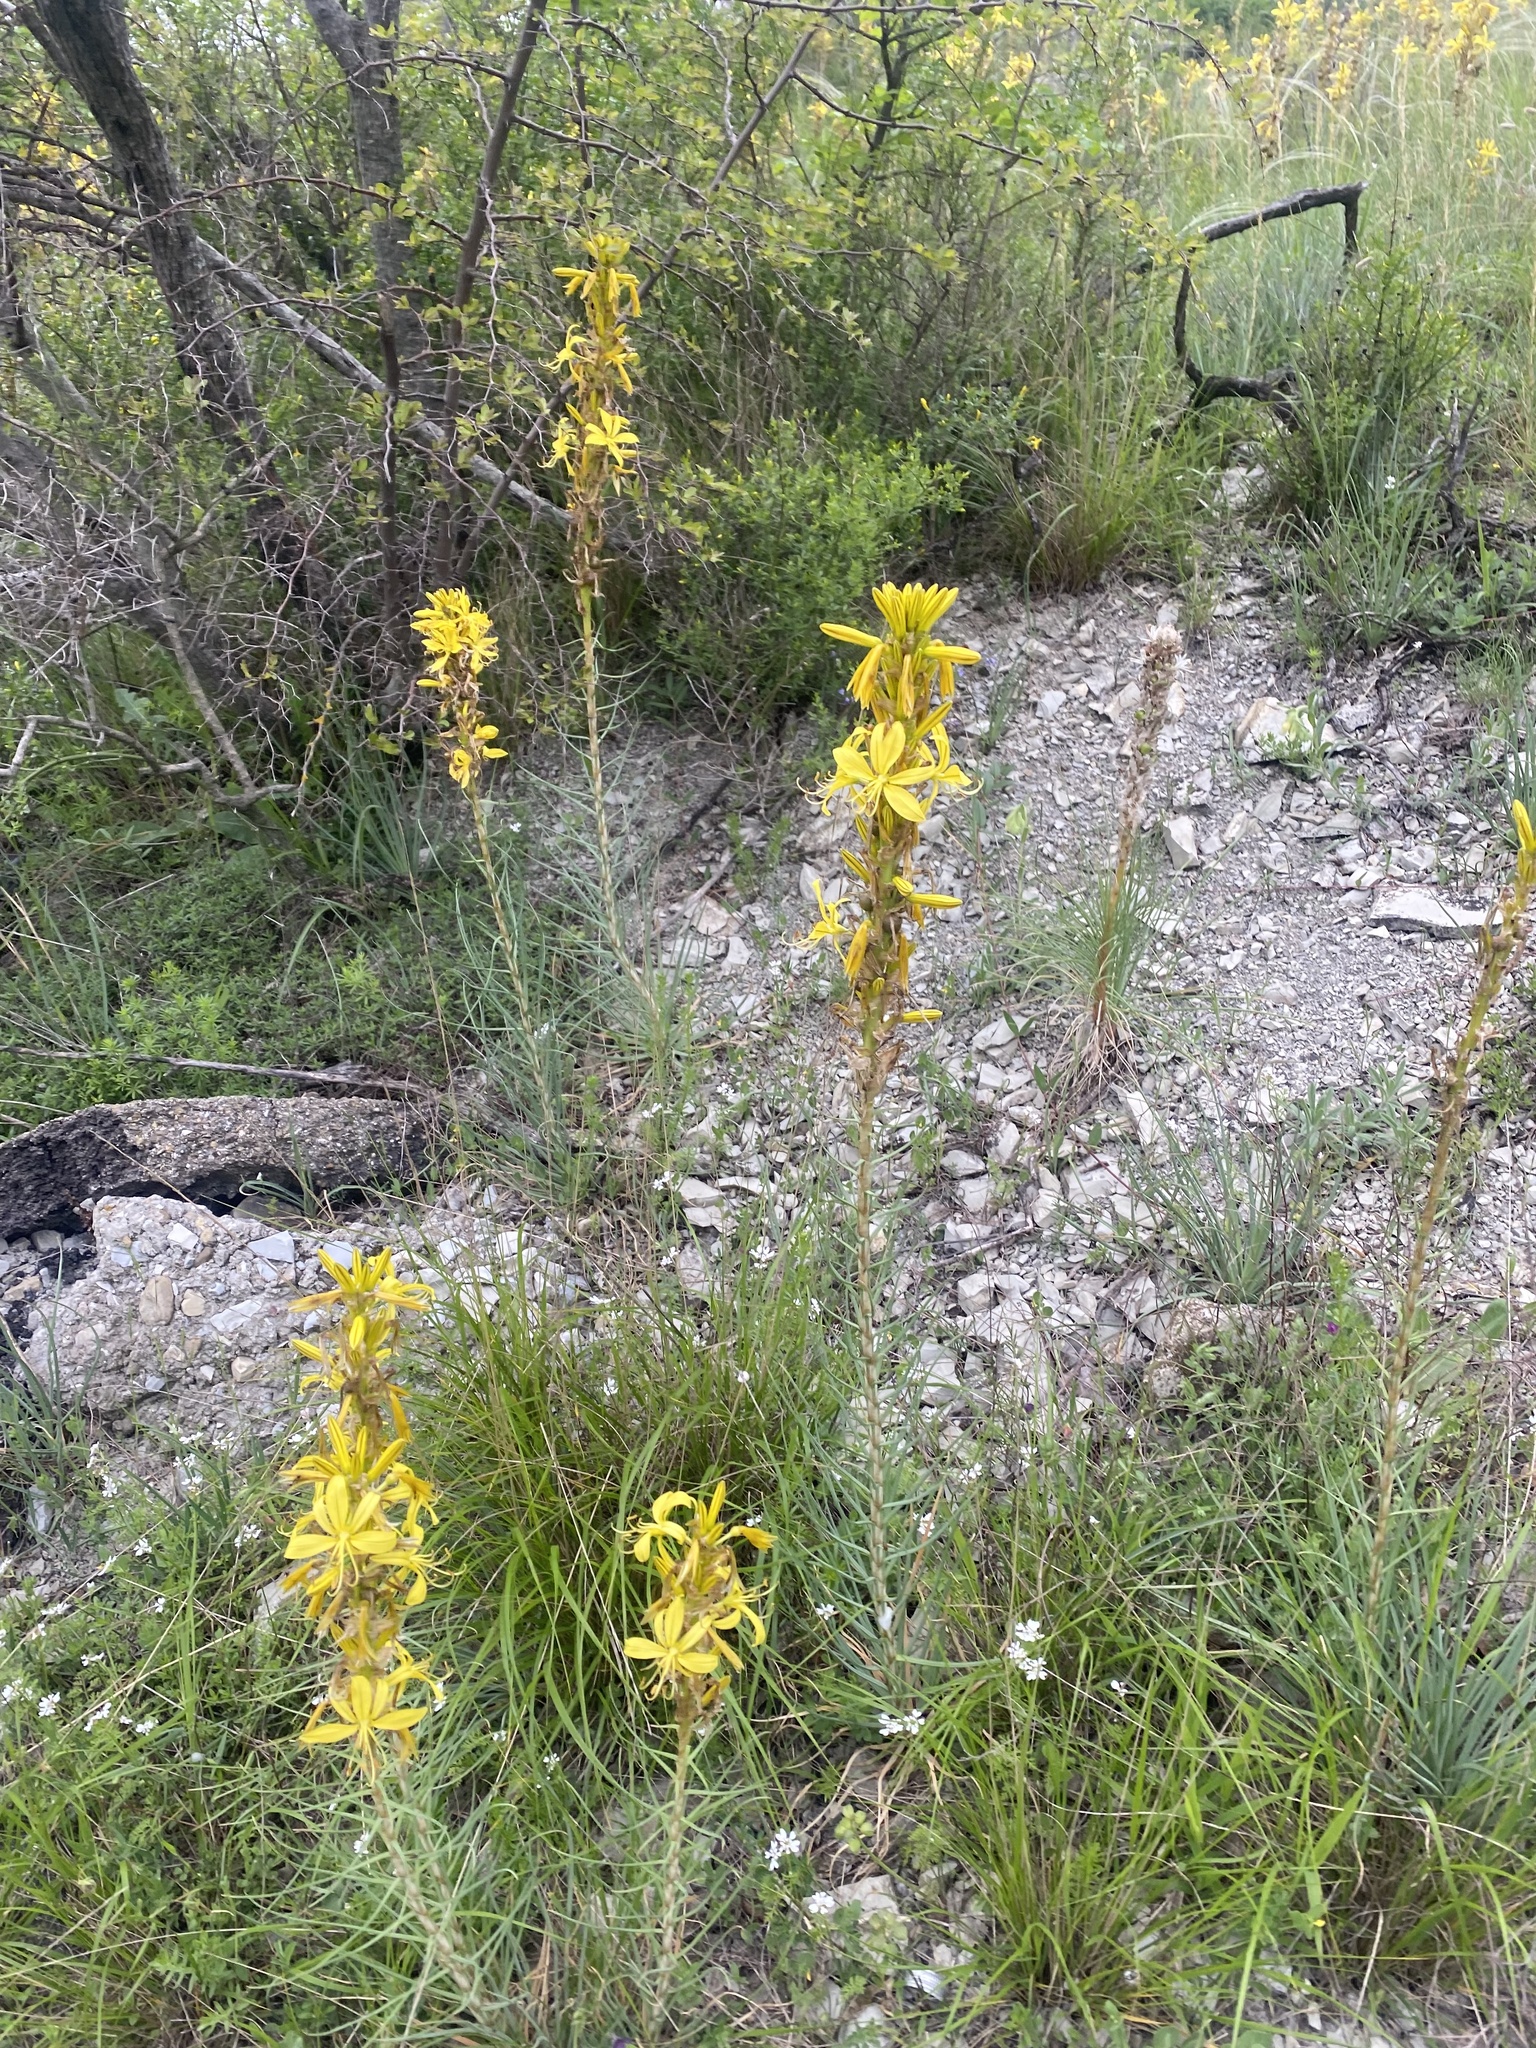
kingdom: Plantae
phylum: Tracheophyta
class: Liliopsida
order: Asparagales
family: Asphodelaceae
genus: Asphodeline
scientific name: Asphodeline lutea
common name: Yellow asphodel
